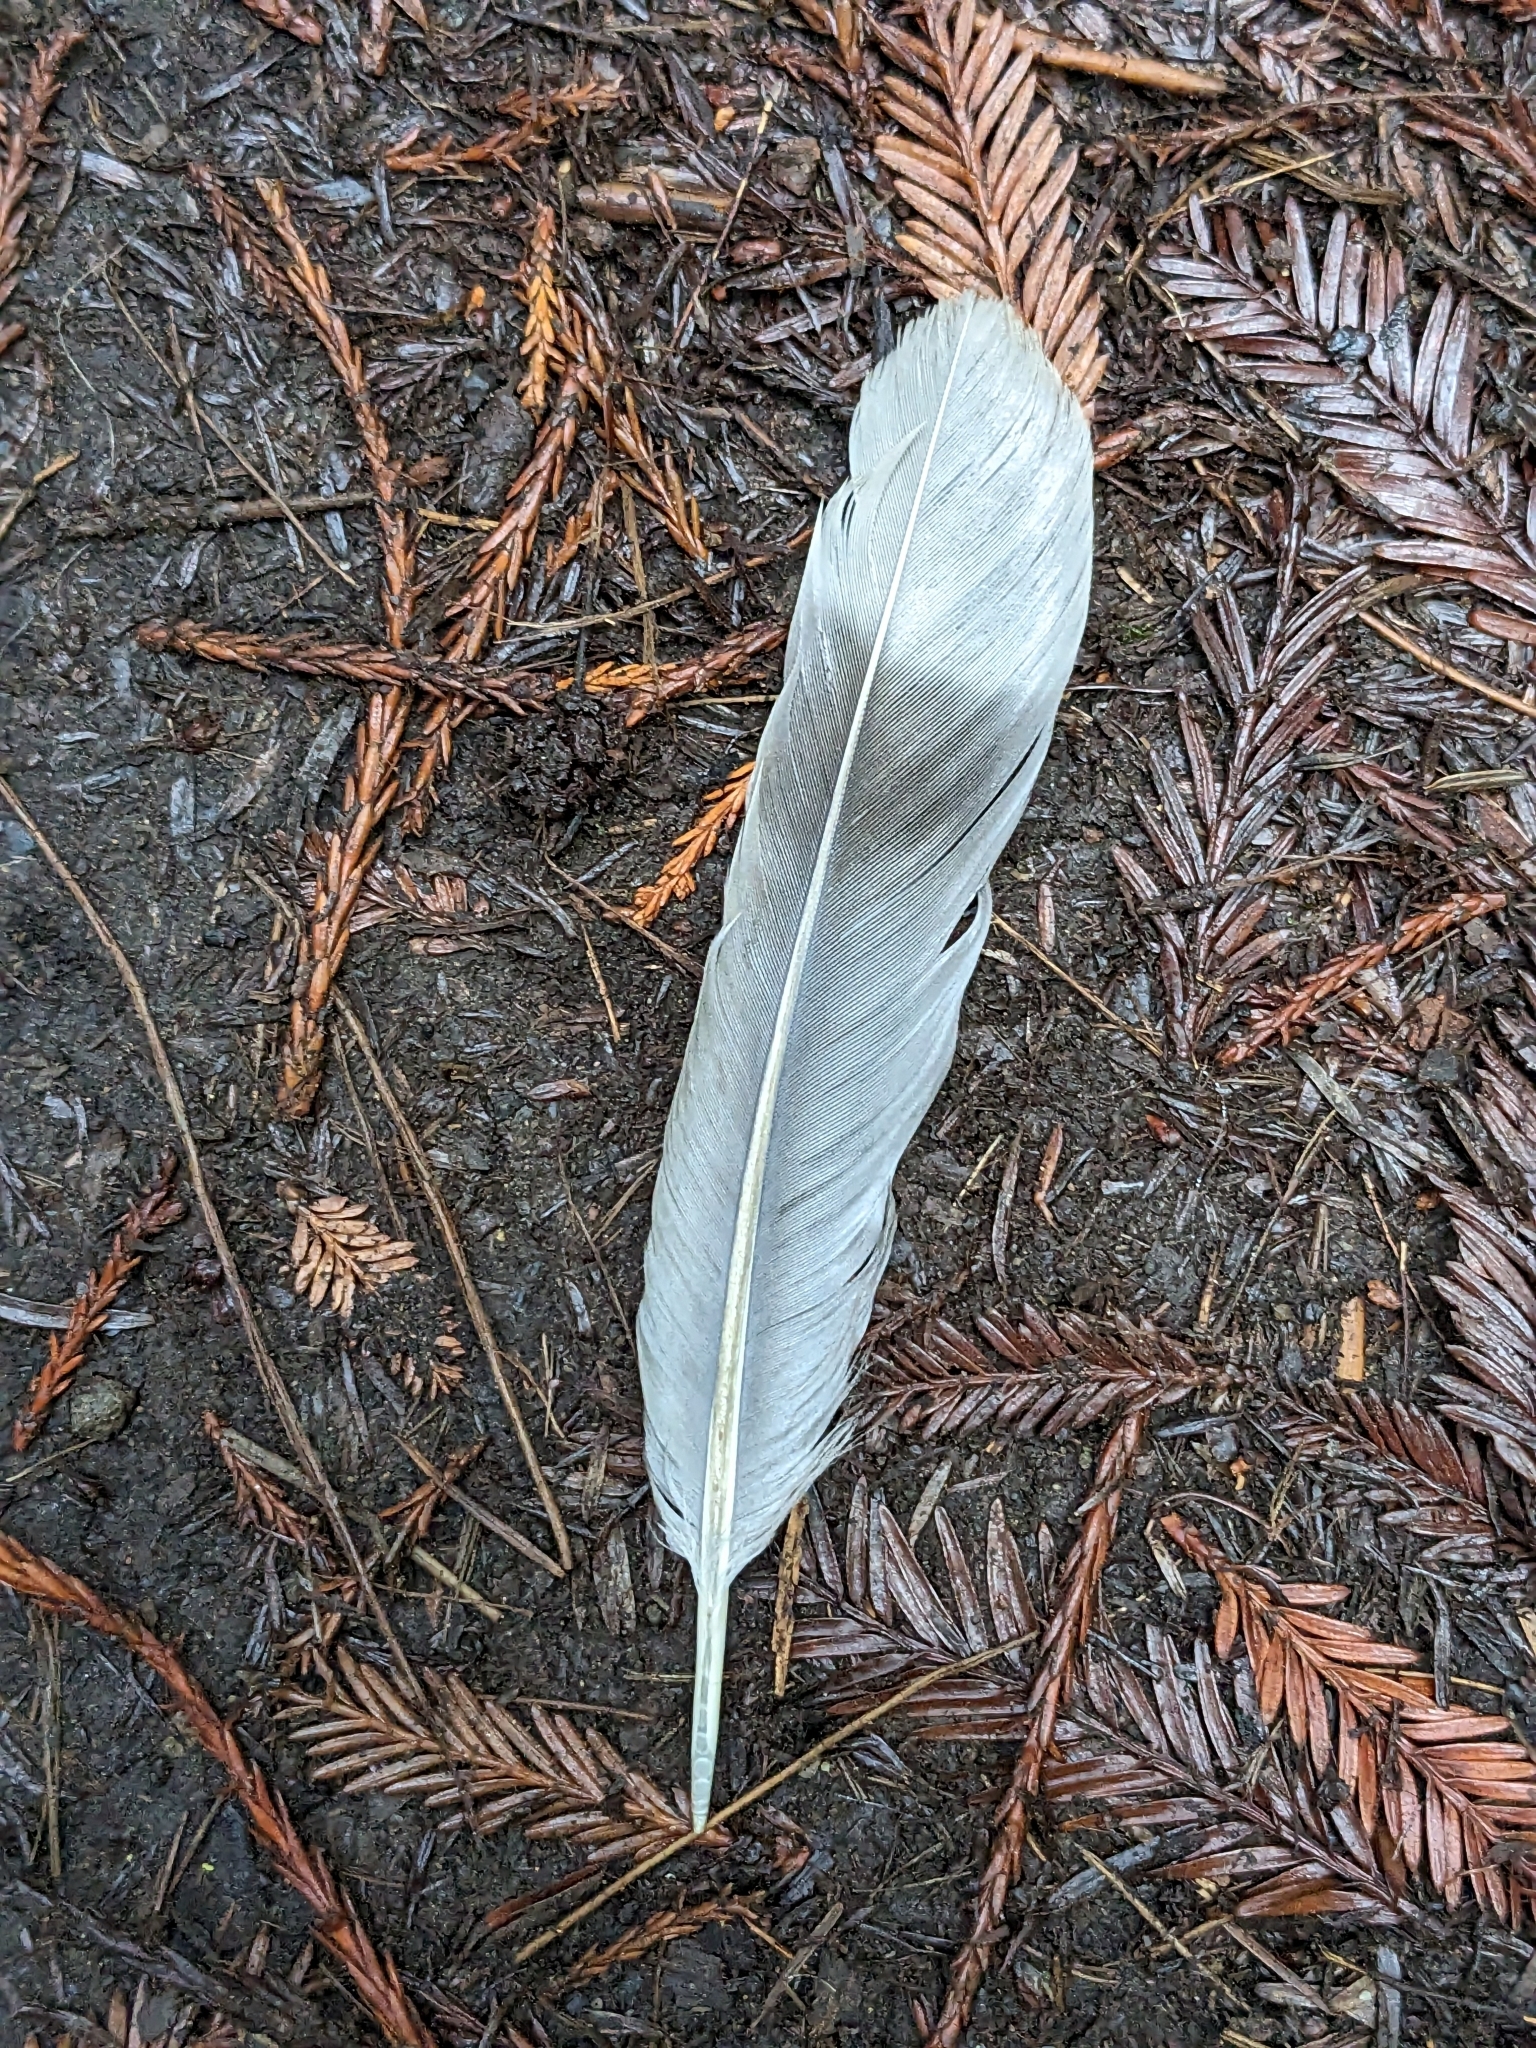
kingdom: Animalia
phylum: Chordata
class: Aves
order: Columbiformes
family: Columbidae
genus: Patagioenas
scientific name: Patagioenas fasciata
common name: Band-tailed pigeon
